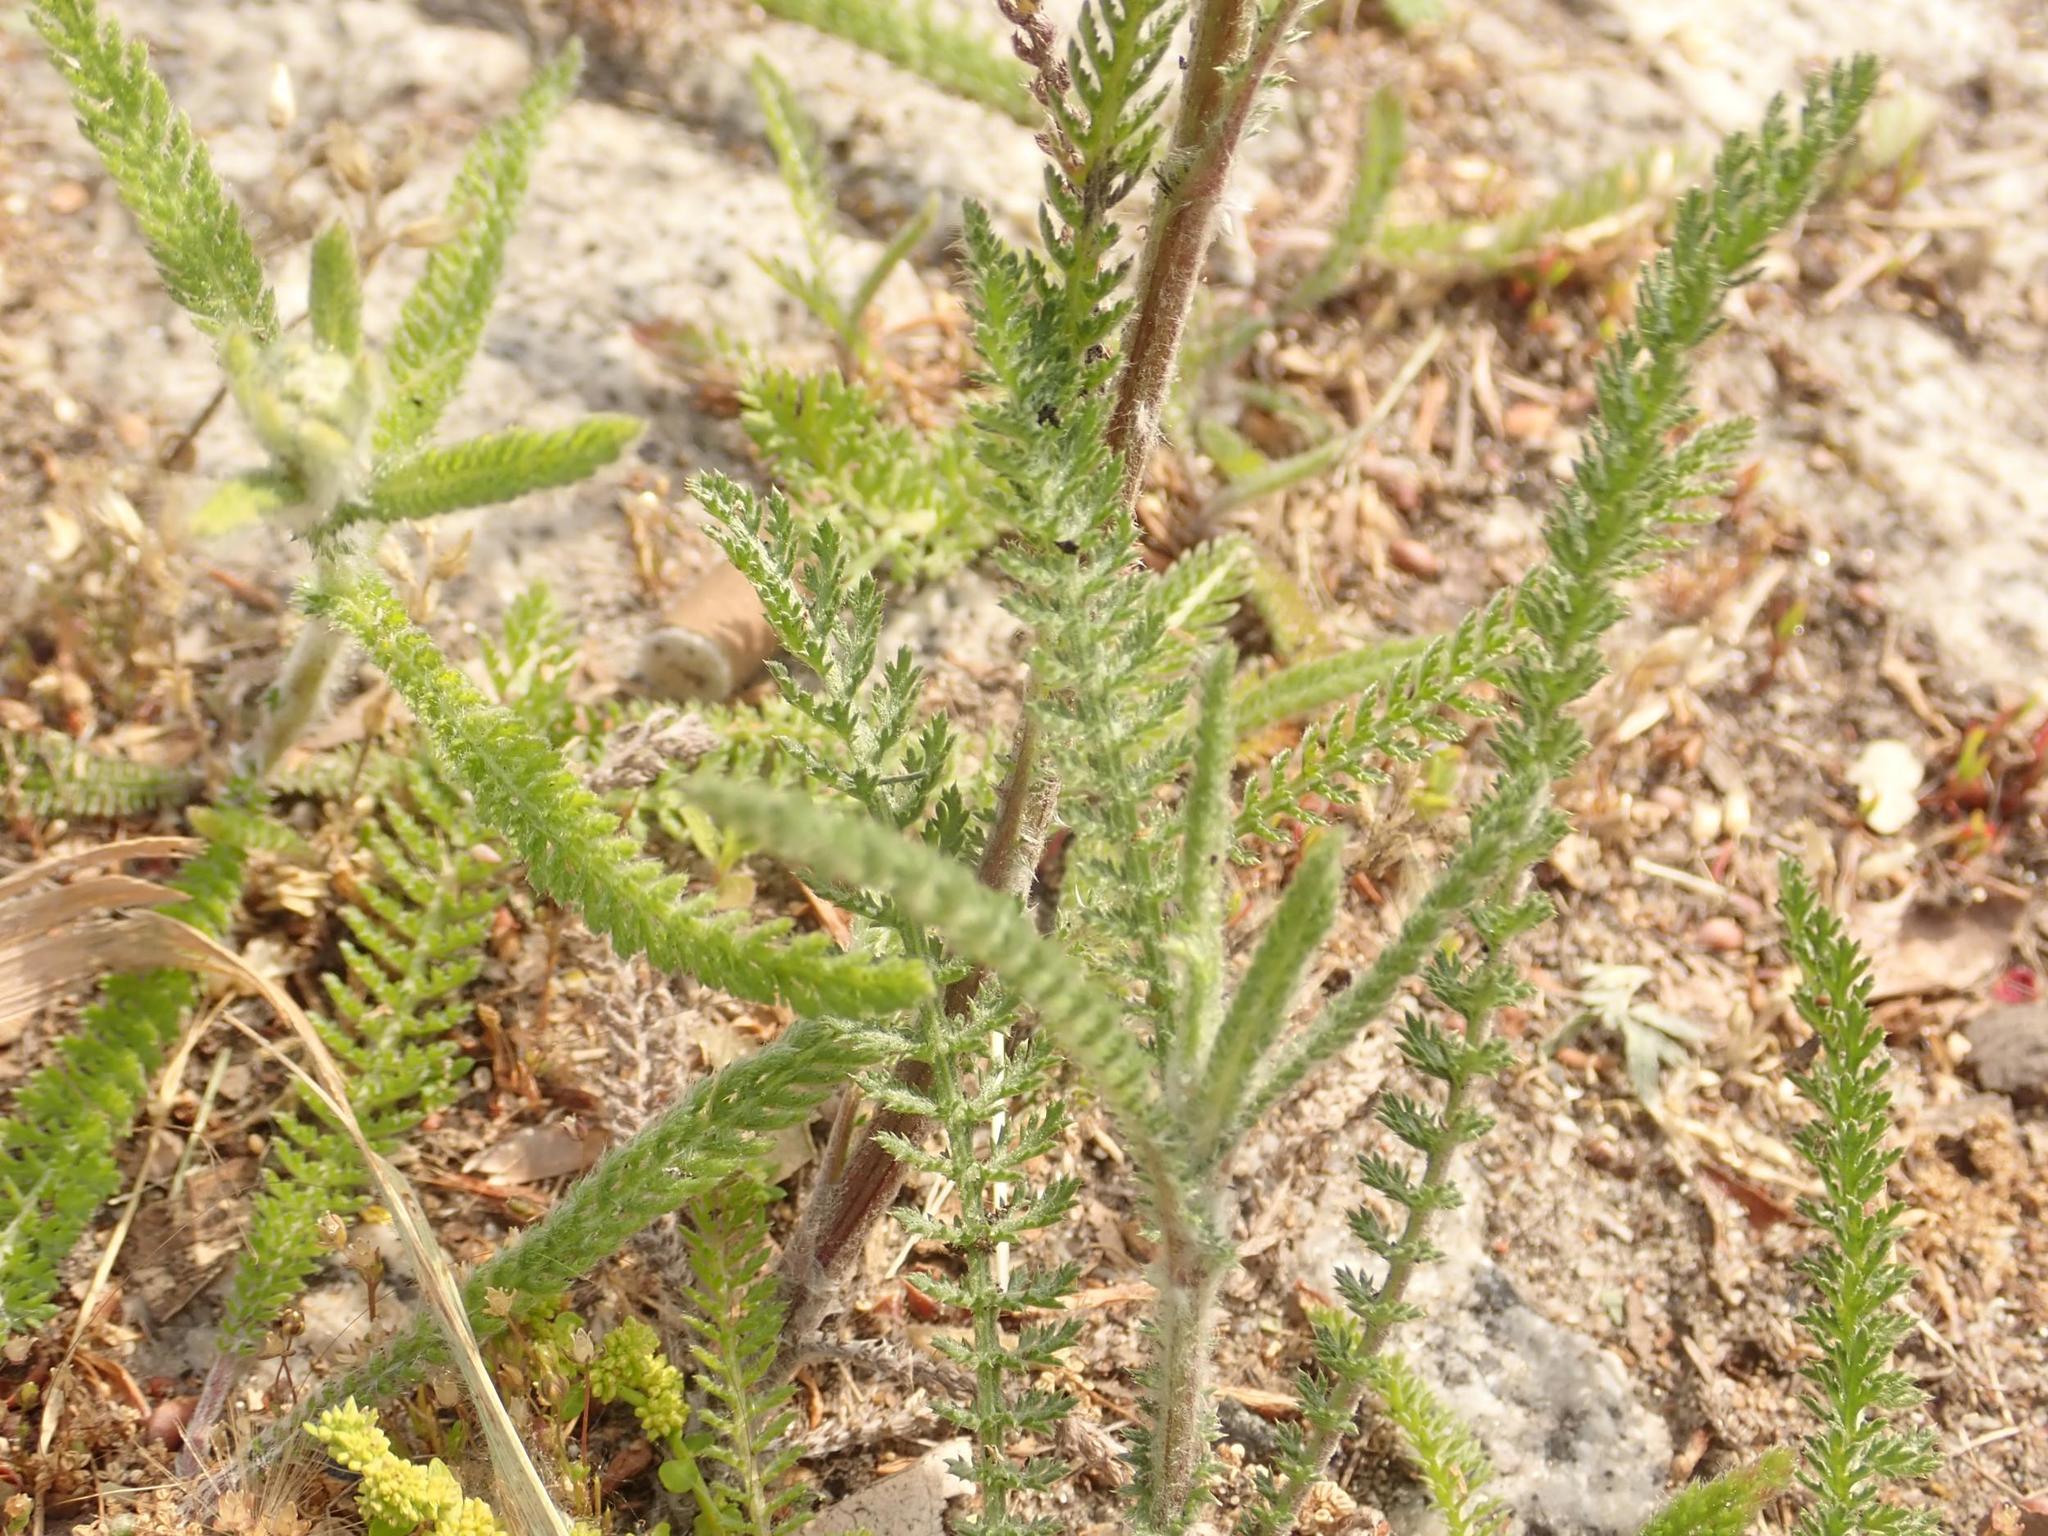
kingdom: Plantae
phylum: Tracheophyta
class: Magnoliopsida
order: Asterales
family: Asteraceae
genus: Achillea
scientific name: Achillea millefolium
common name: Yarrow
